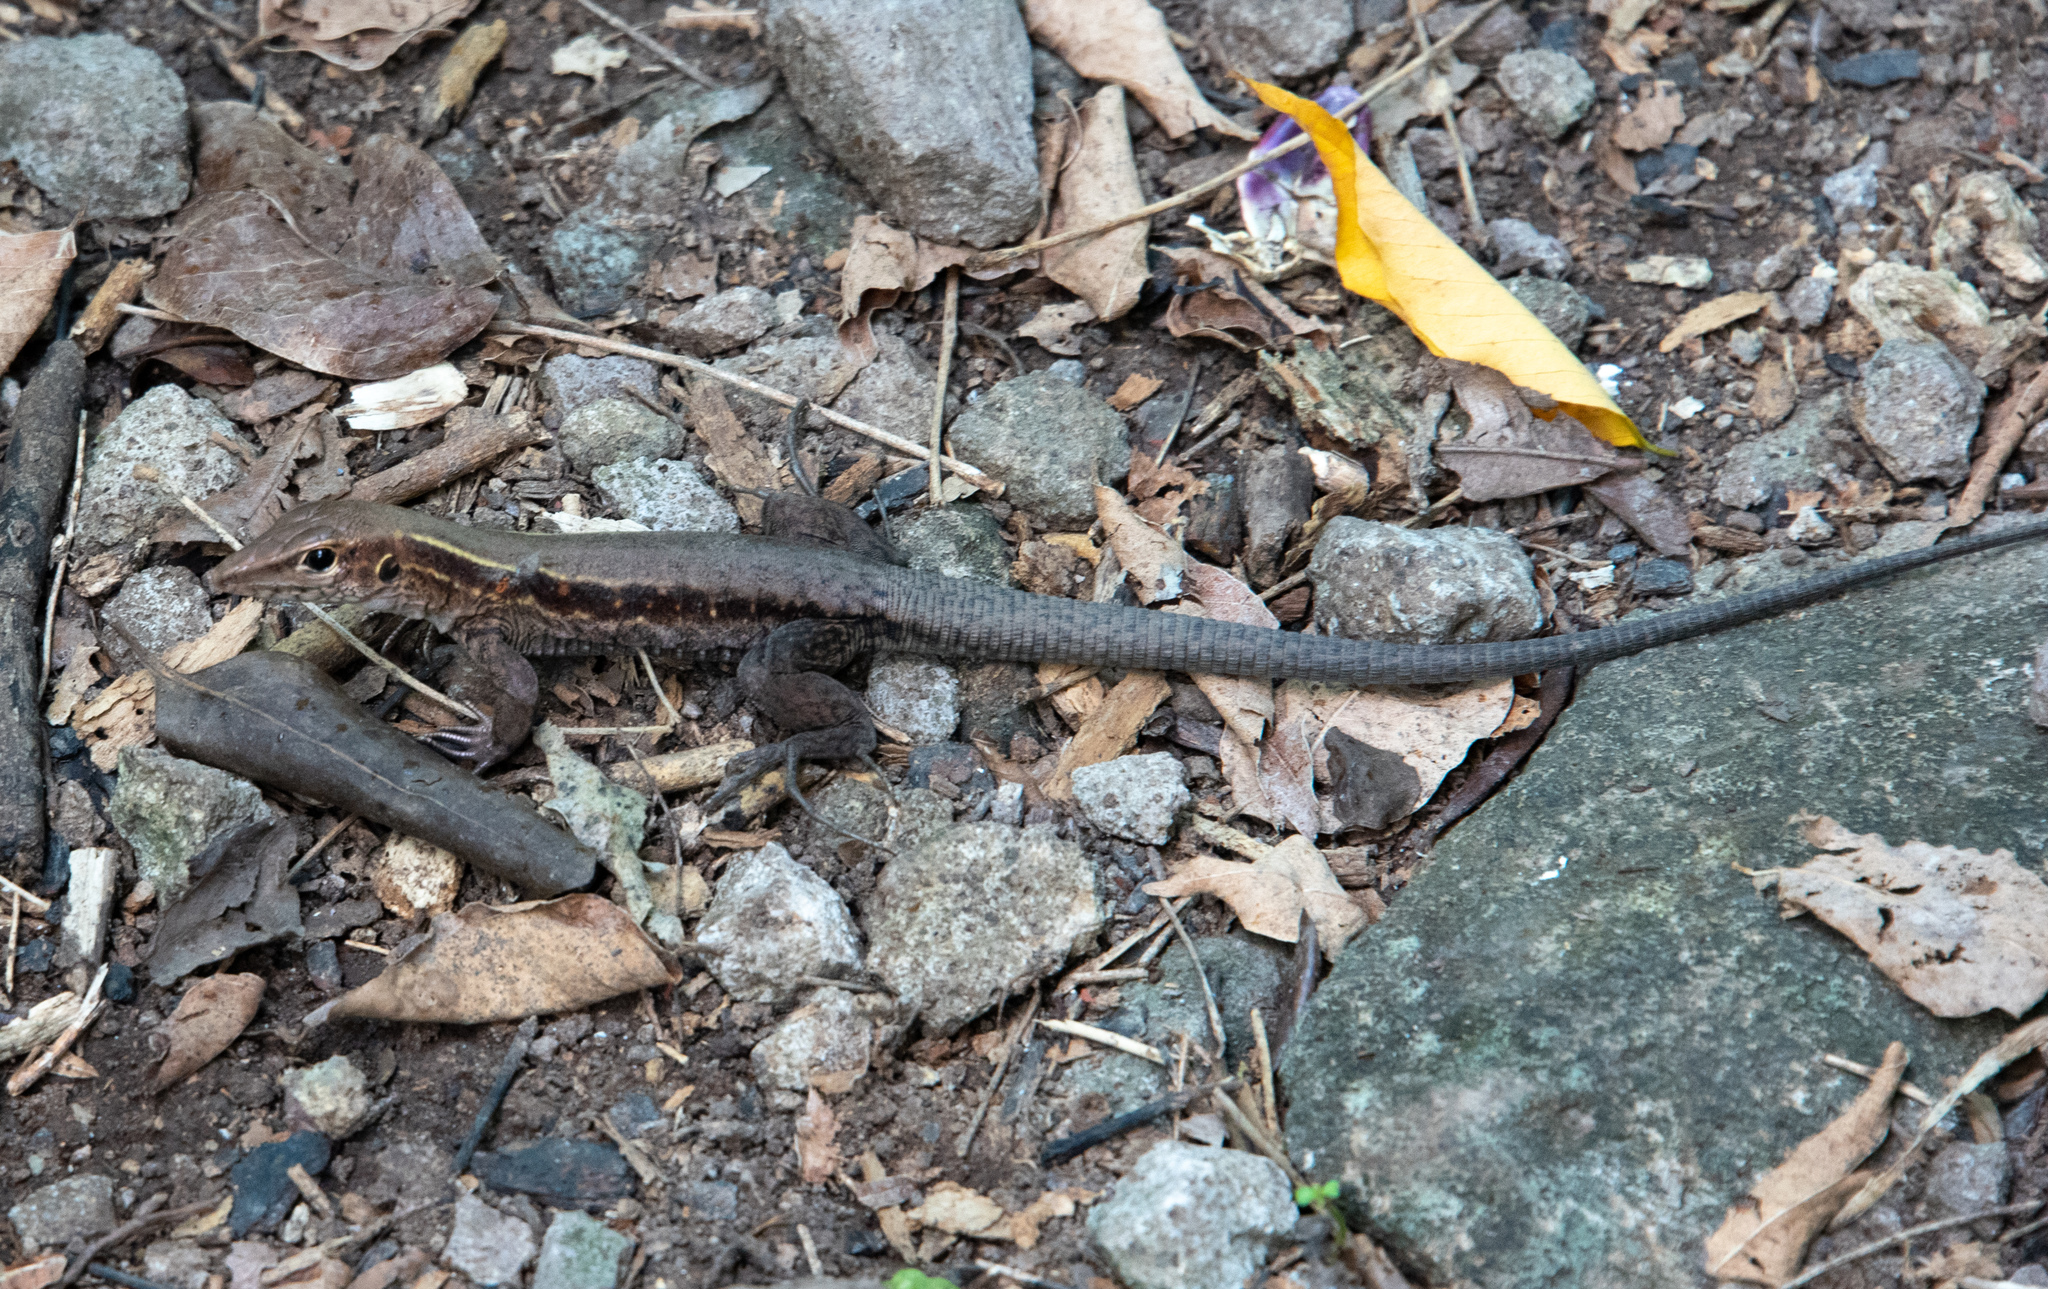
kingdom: Animalia
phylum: Chordata
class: Squamata
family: Teiidae
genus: Pholidoscelis
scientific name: Pholidoscelis fuscatus
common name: Dominican ameiva
